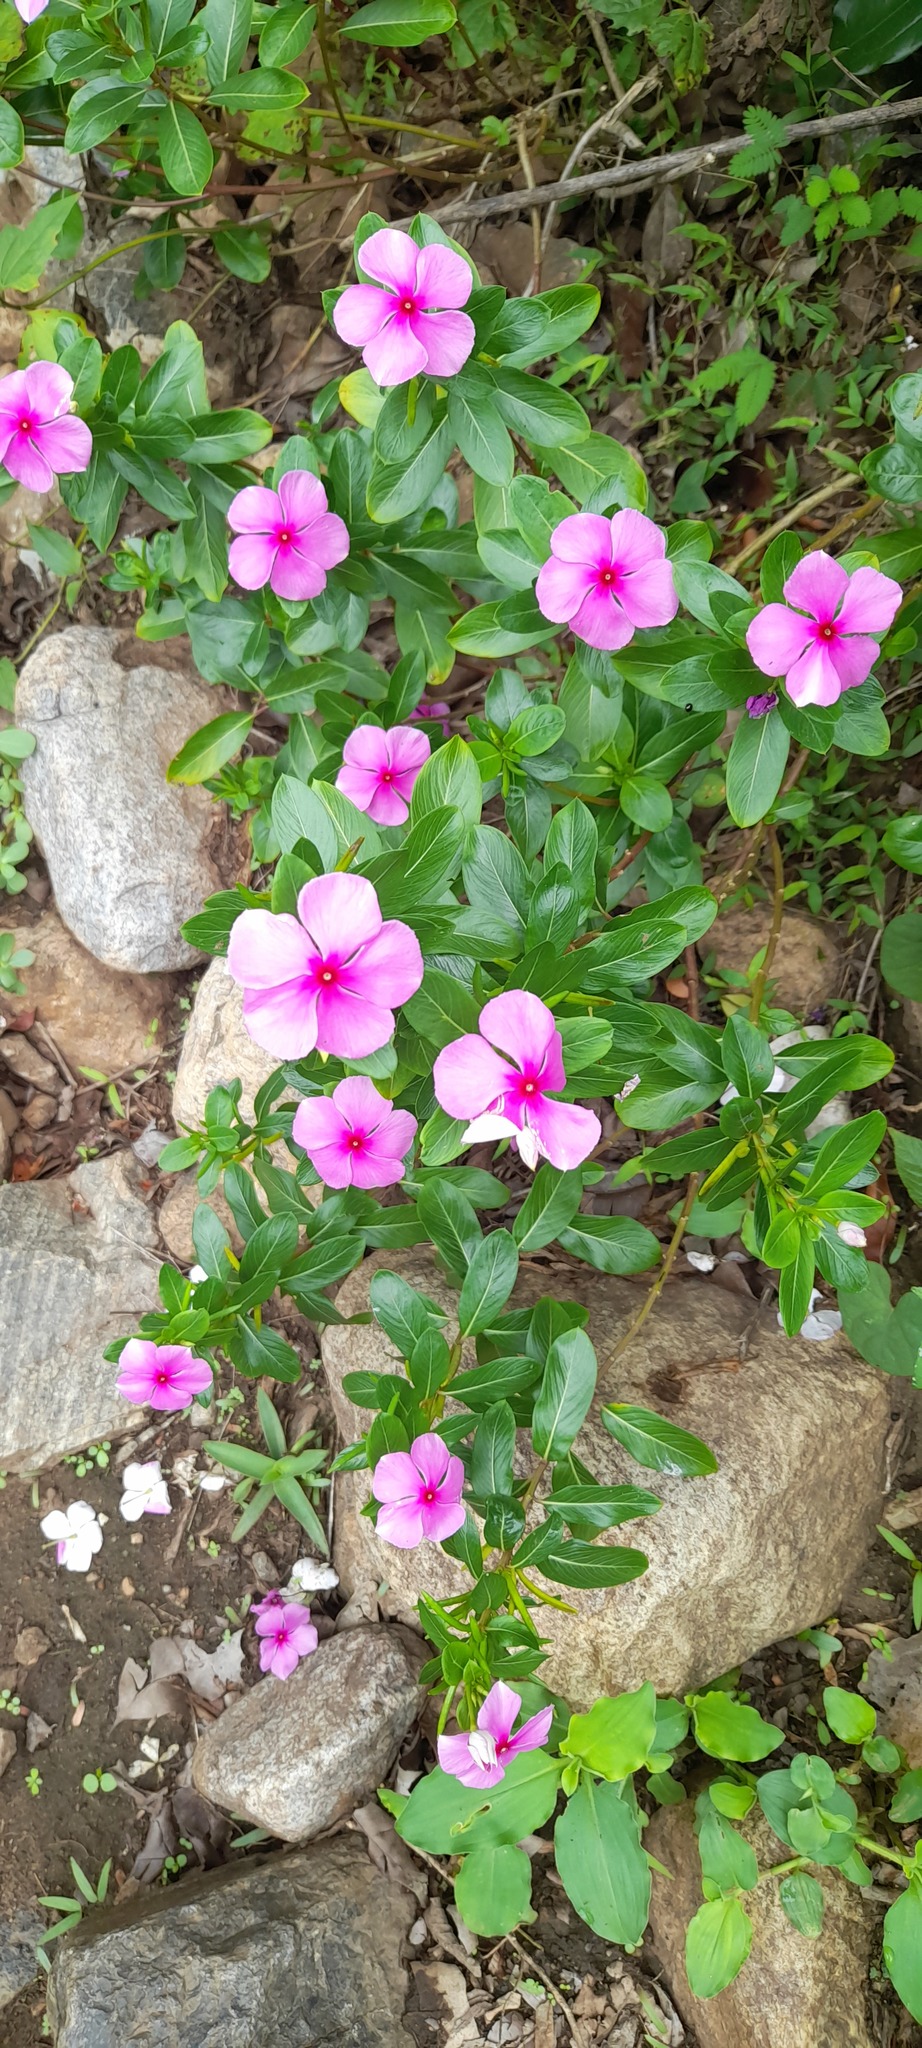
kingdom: Plantae
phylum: Tracheophyta
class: Magnoliopsida
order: Gentianales
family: Apocynaceae
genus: Catharanthus
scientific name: Catharanthus roseus
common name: Madagascar periwinkle
